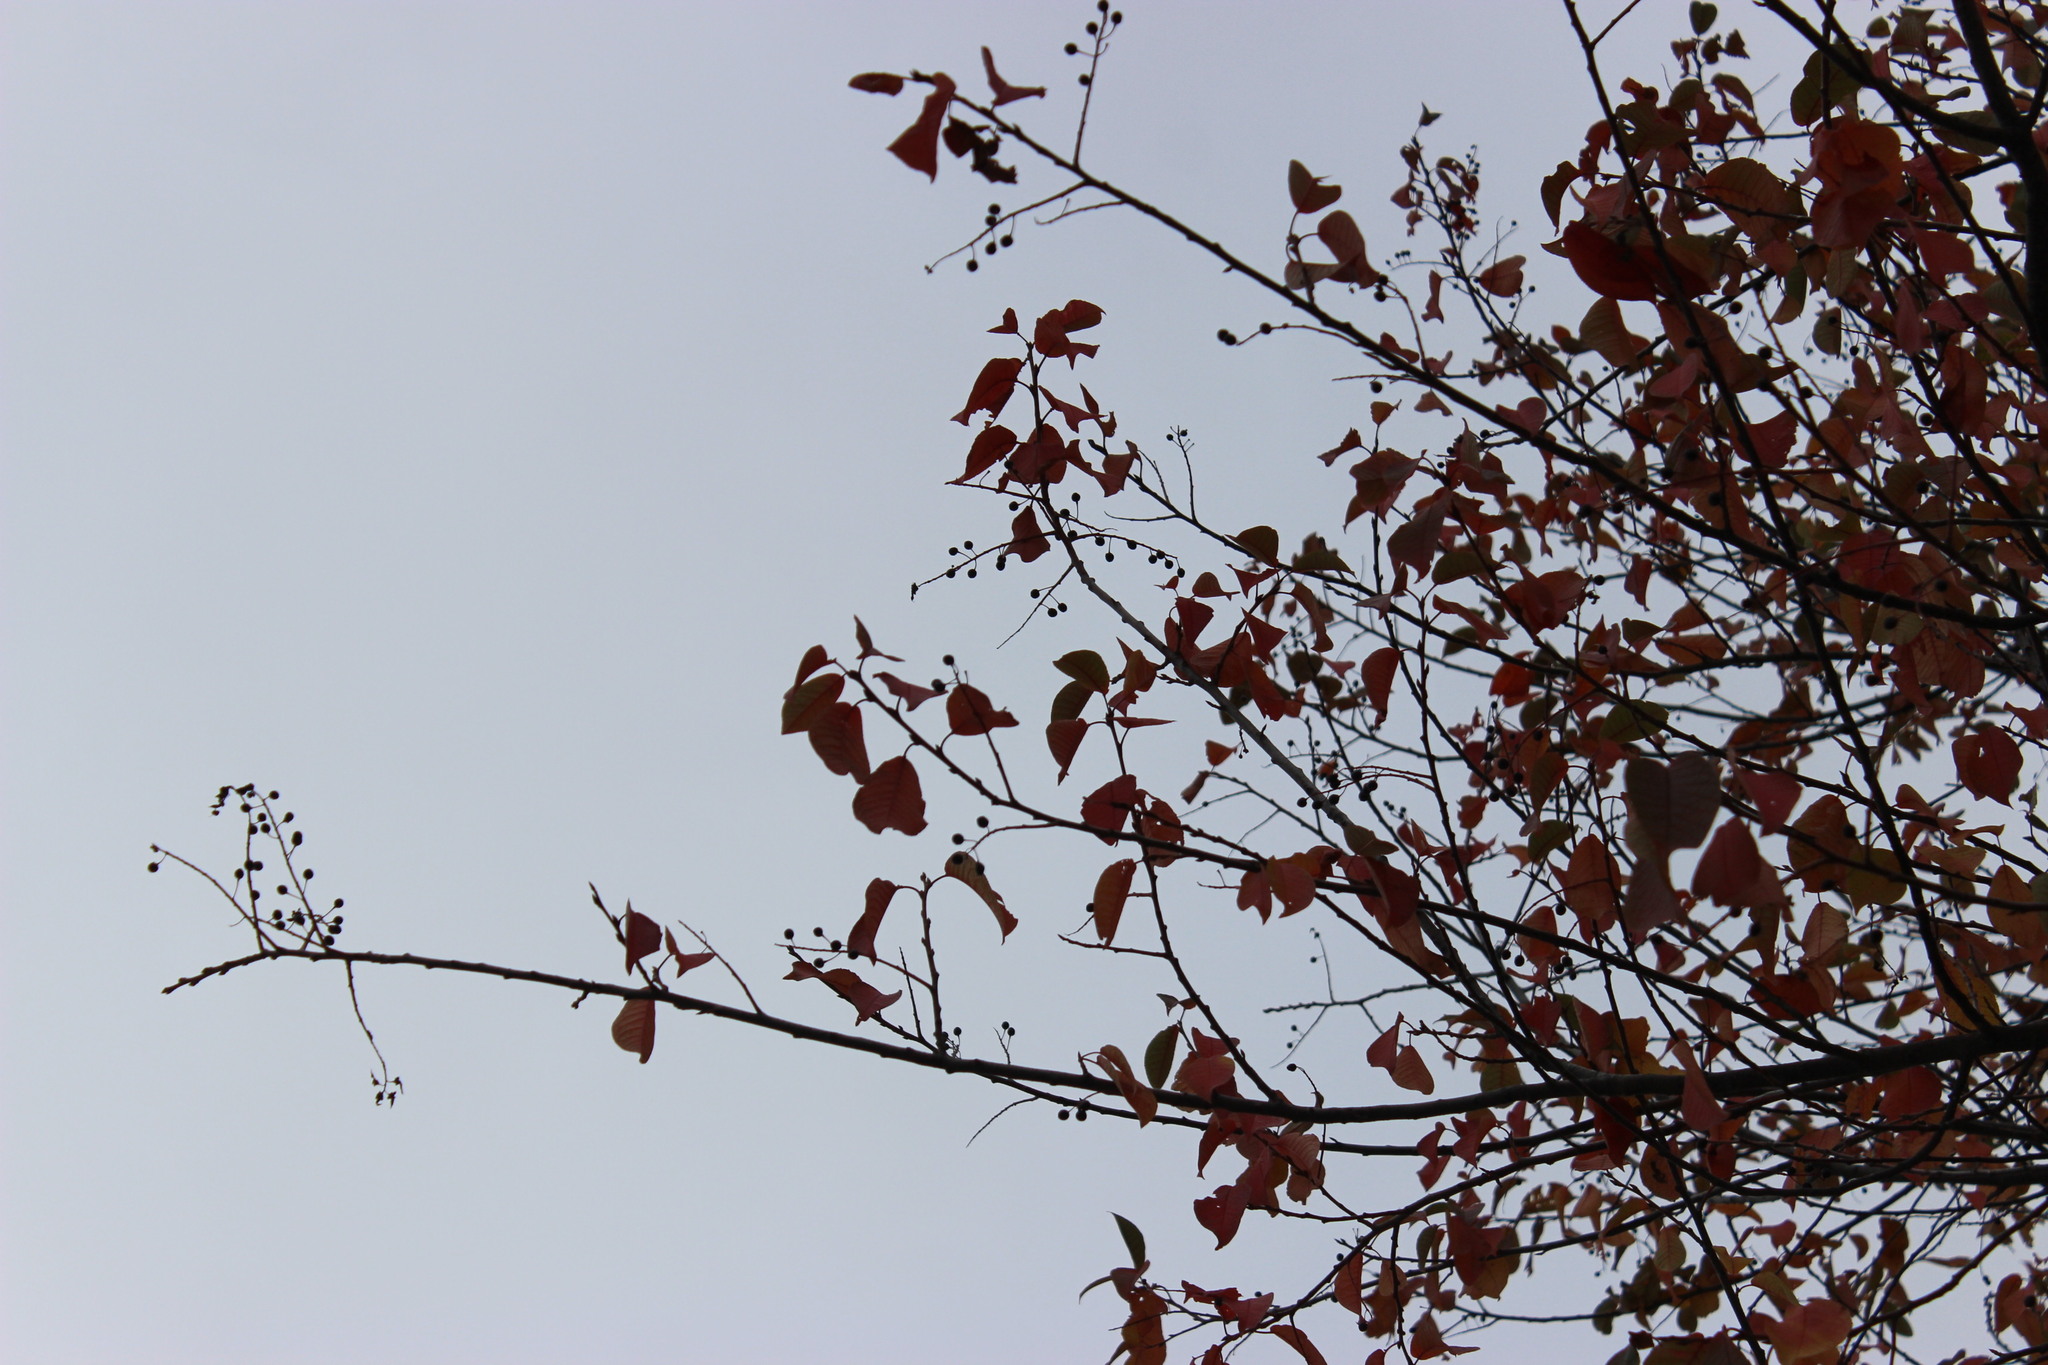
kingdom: Plantae
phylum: Tracheophyta
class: Magnoliopsida
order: Rosales
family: Rosaceae
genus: Prunus
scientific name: Prunus padus
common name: Bird cherry
